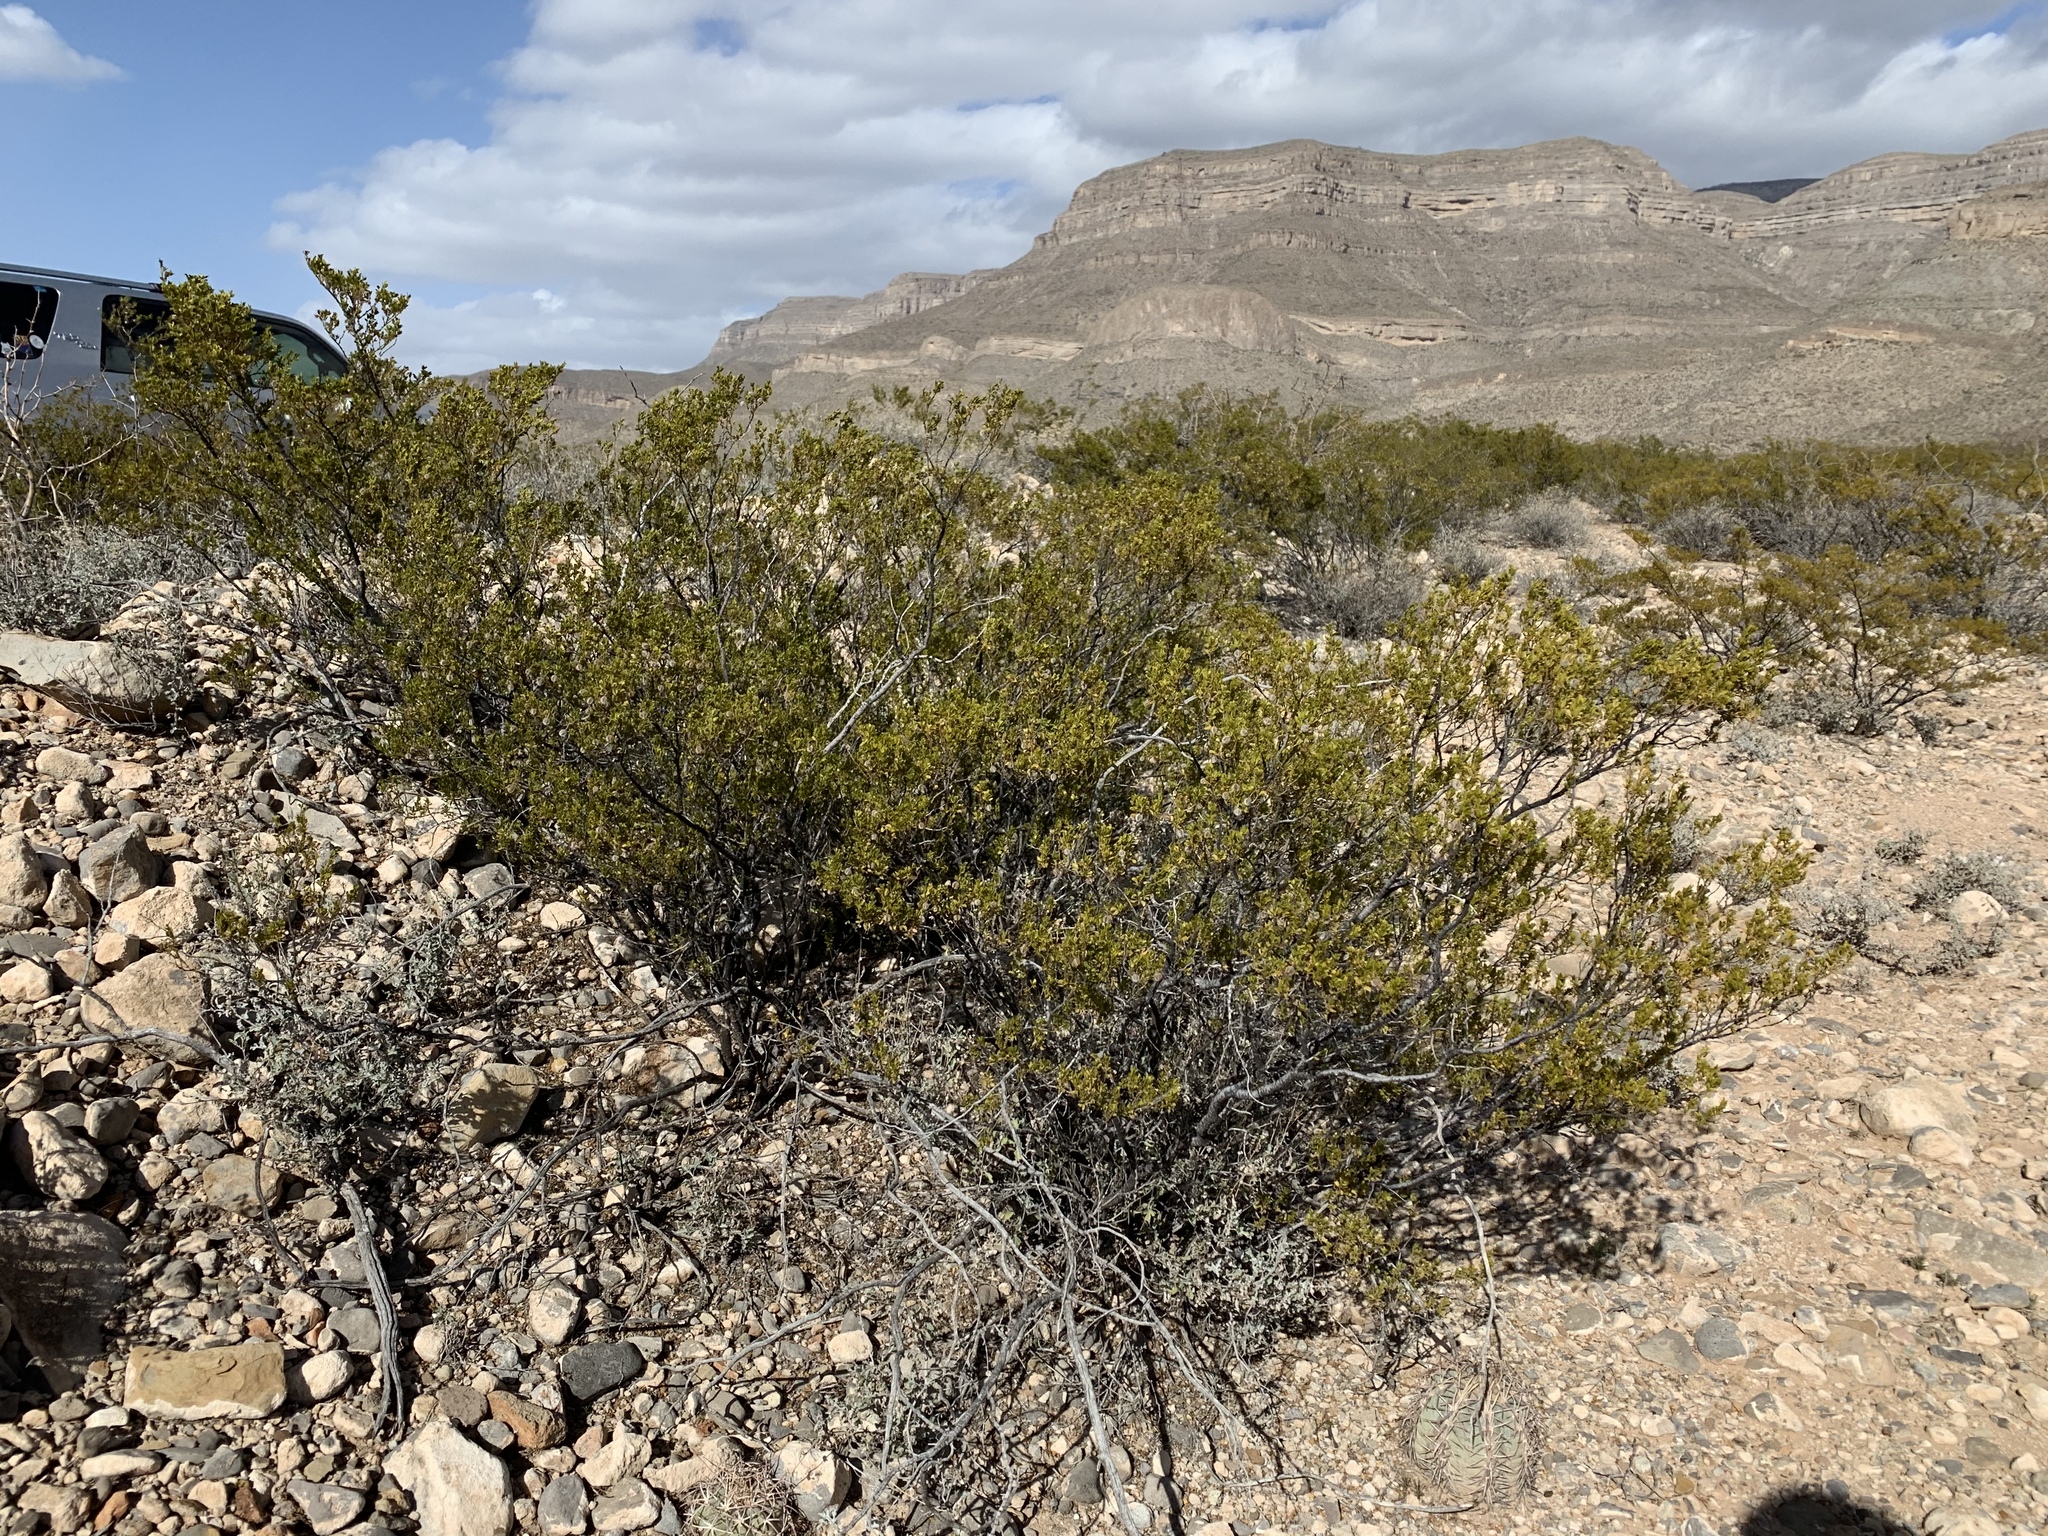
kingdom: Plantae
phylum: Tracheophyta
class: Magnoliopsida
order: Zygophyllales
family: Zygophyllaceae
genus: Larrea
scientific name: Larrea tridentata
